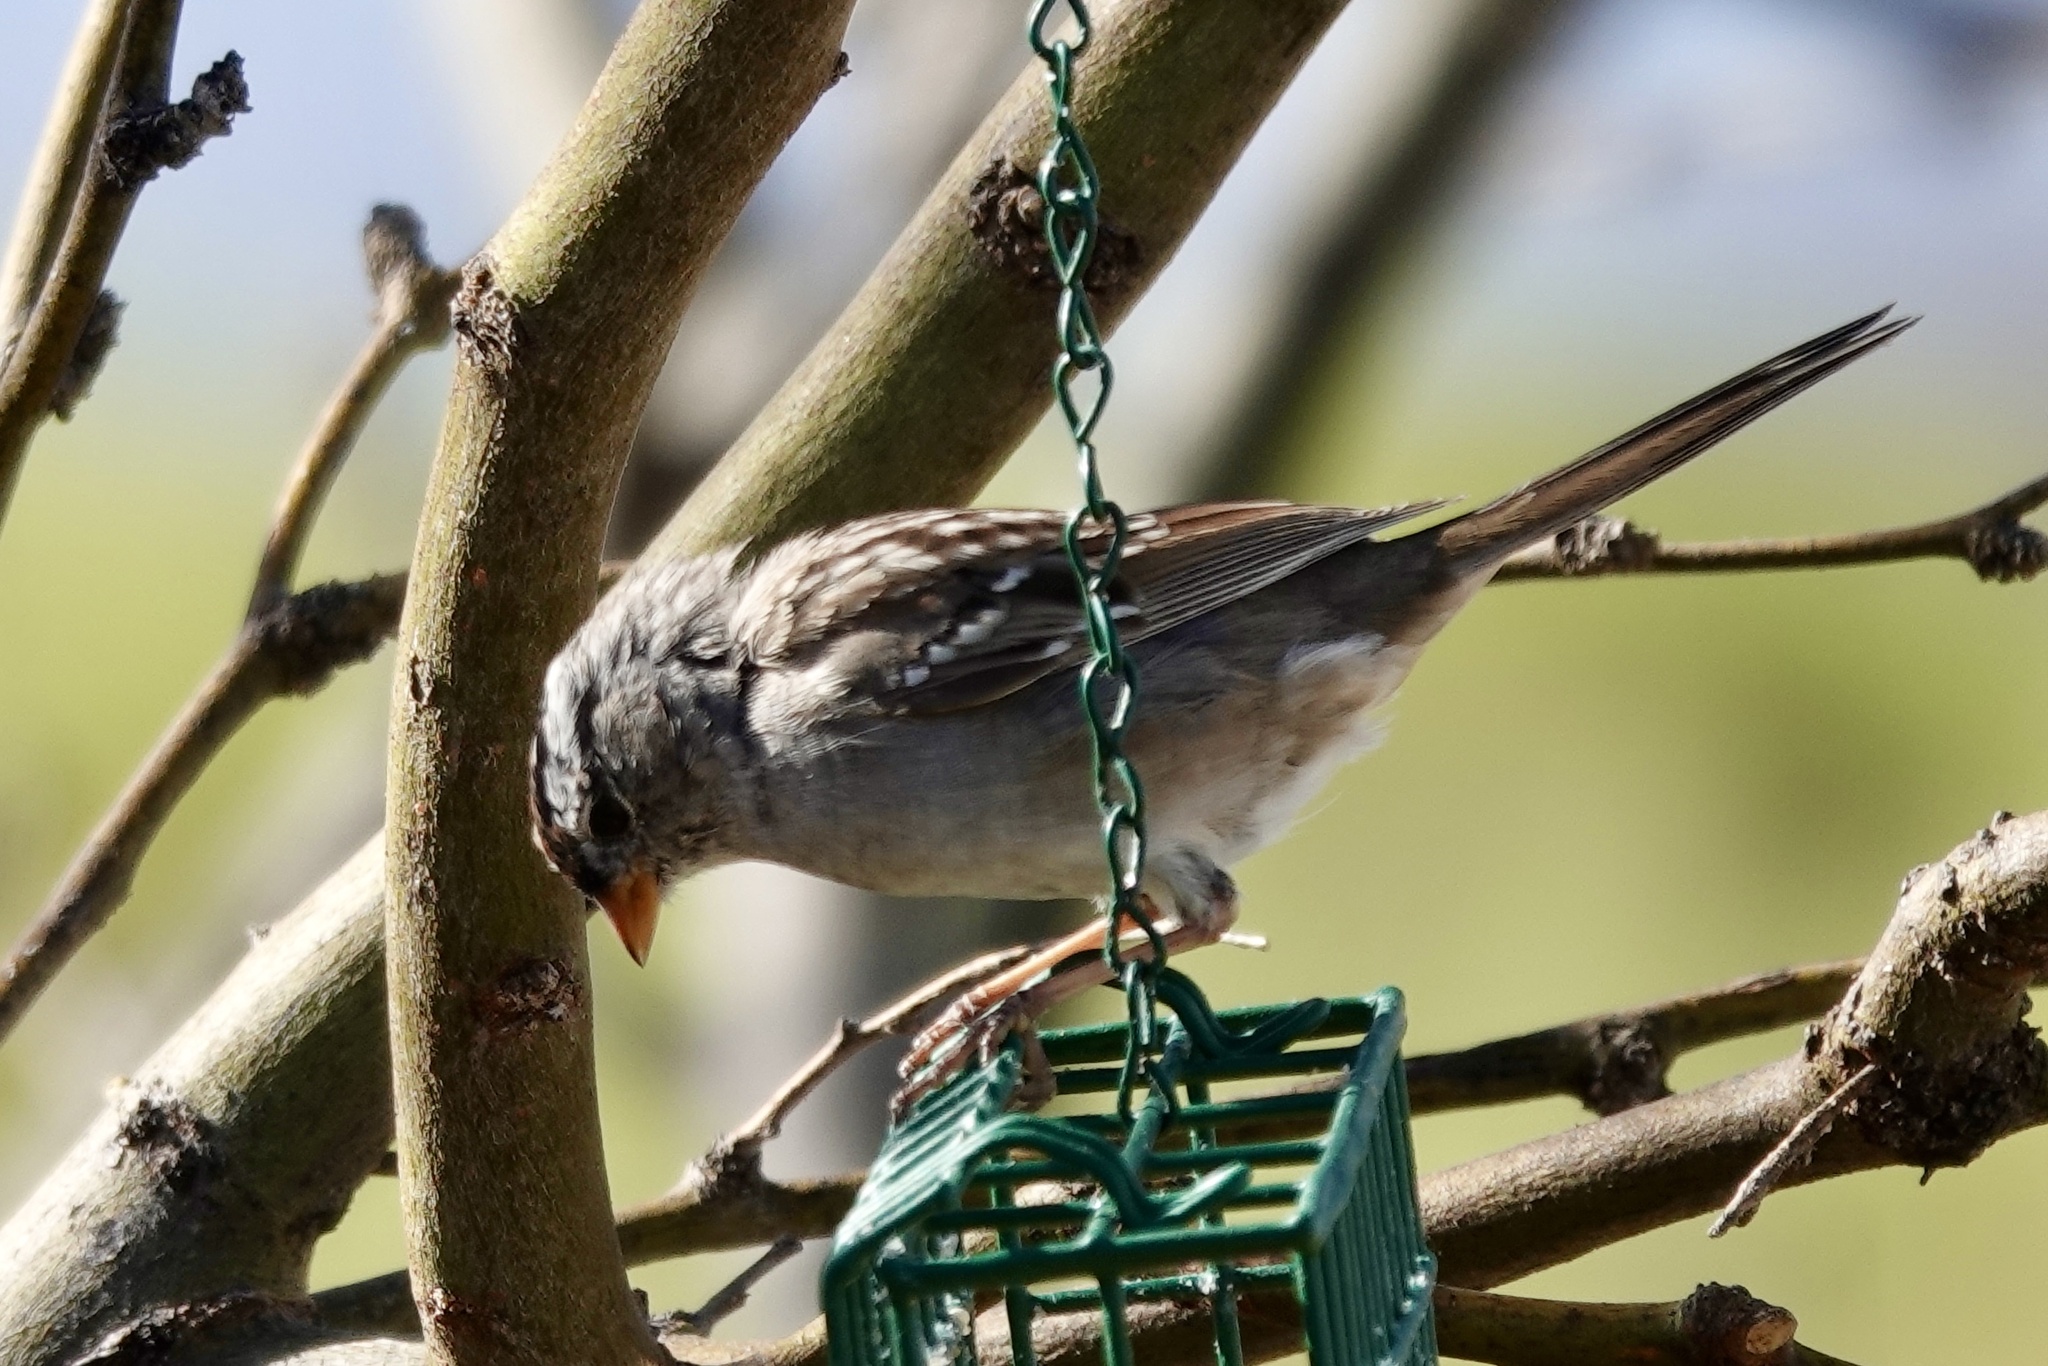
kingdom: Animalia
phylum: Chordata
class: Aves
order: Passeriformes
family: Passerellidae
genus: Zonotrichia
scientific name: Zonotrichia leucophrys
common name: White-crowned sparrow
